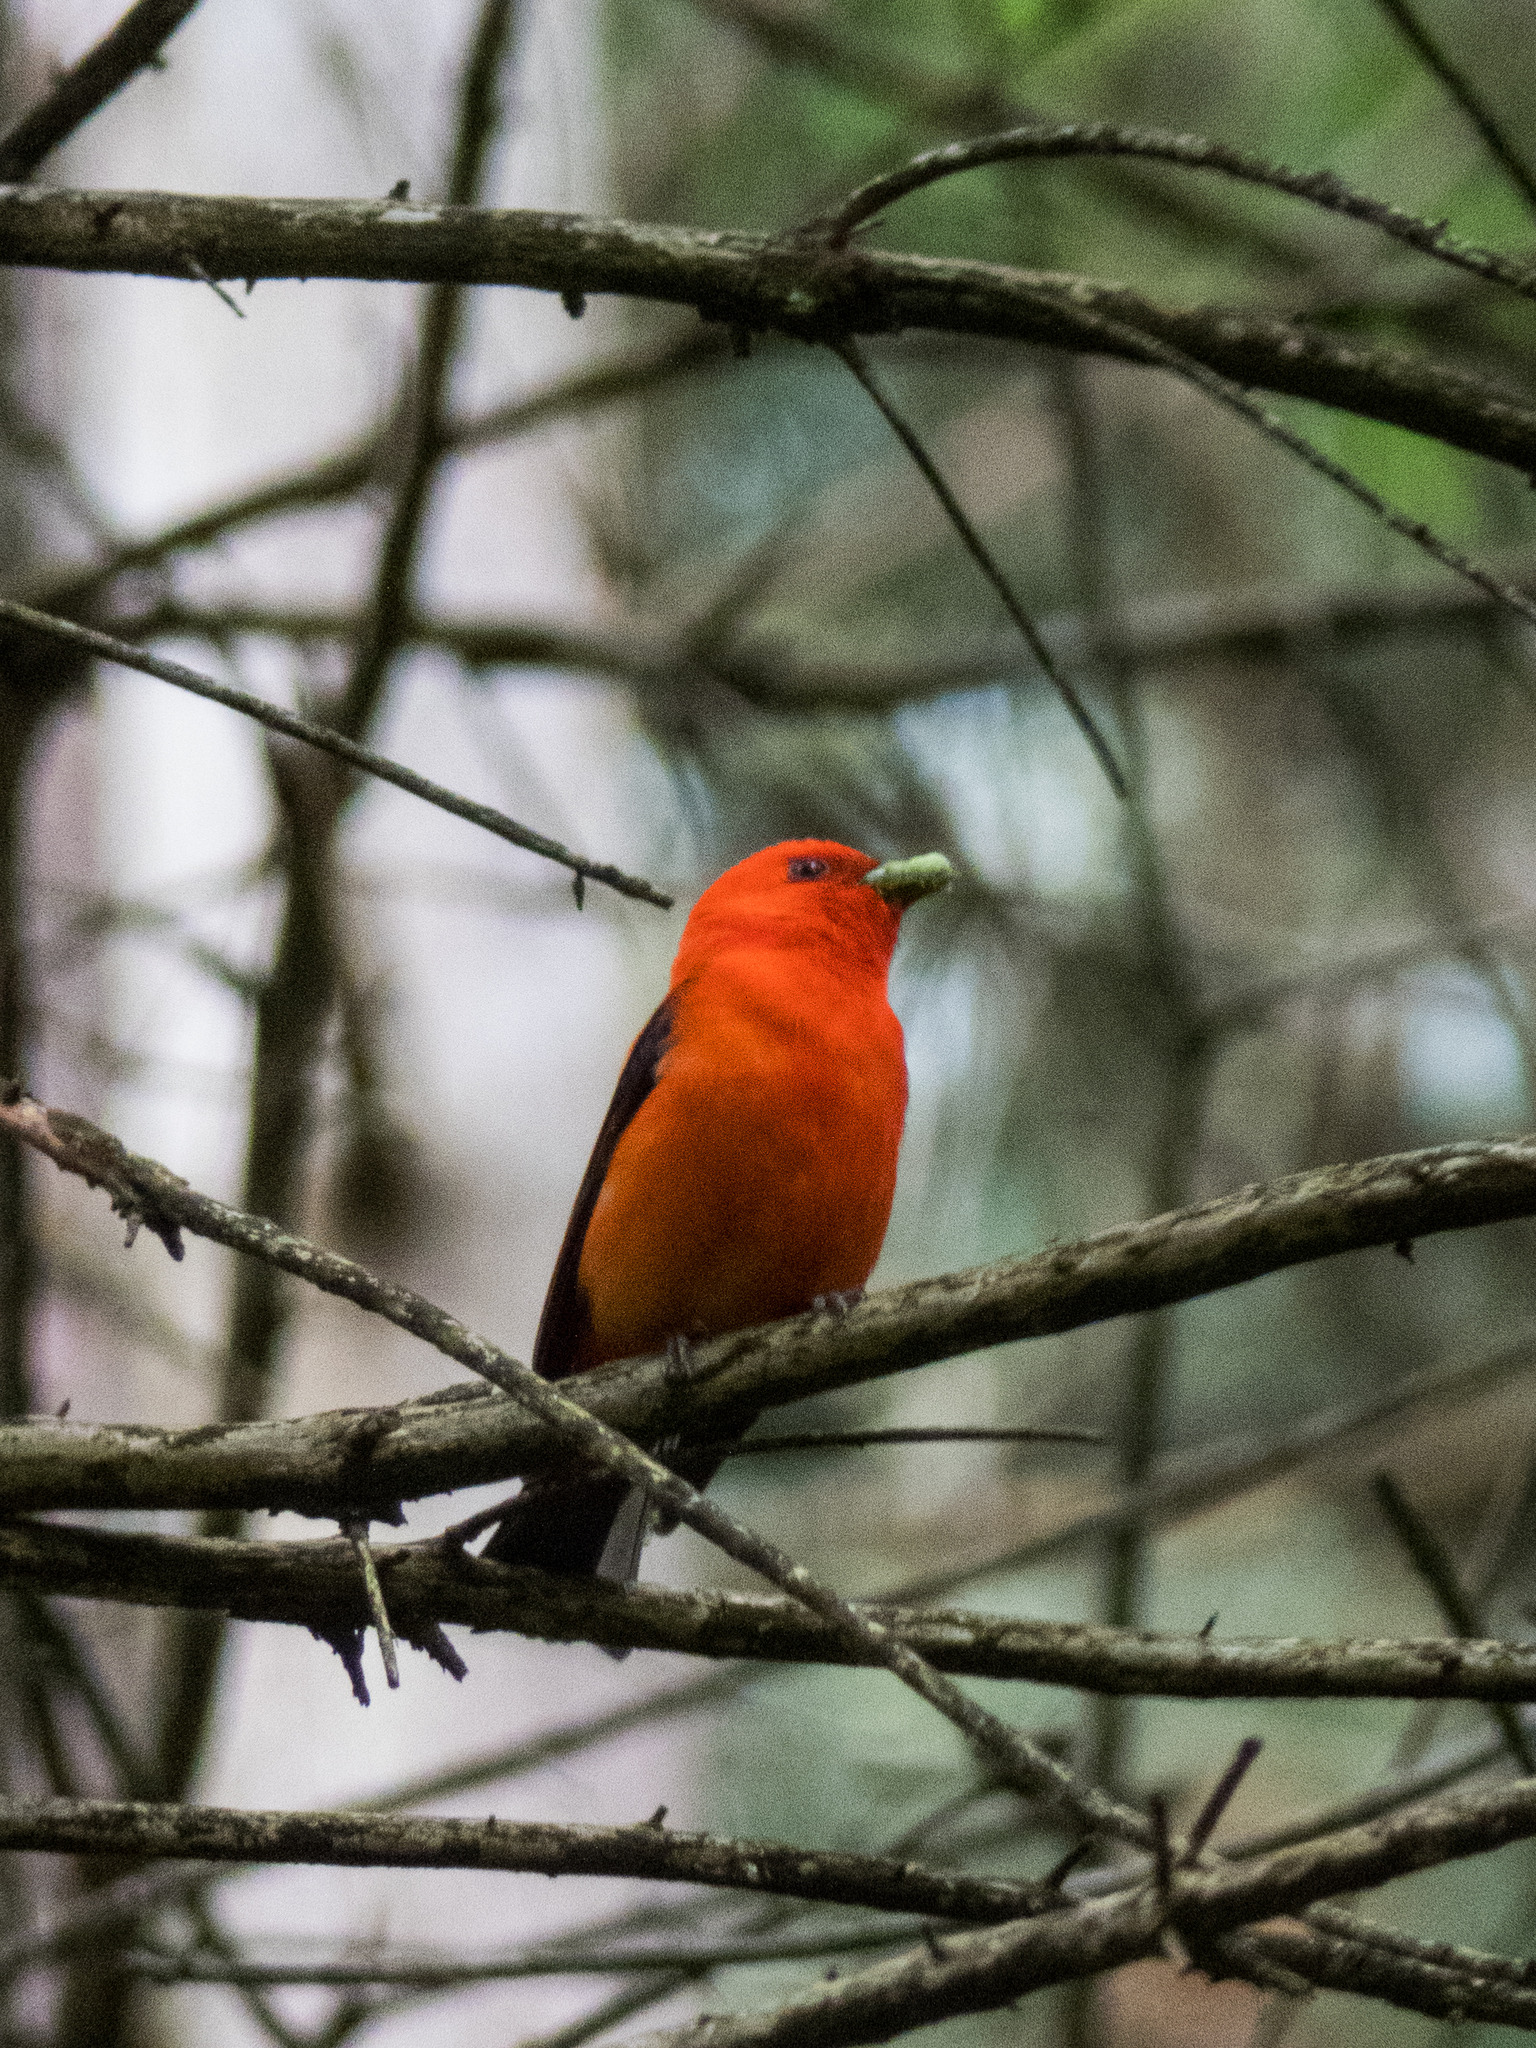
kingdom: Animalia
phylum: Chordata
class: Aves
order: Passeriformes
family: Cardinalidae
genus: Piranga
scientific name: Piranga olivacea
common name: Scarlet tanager
